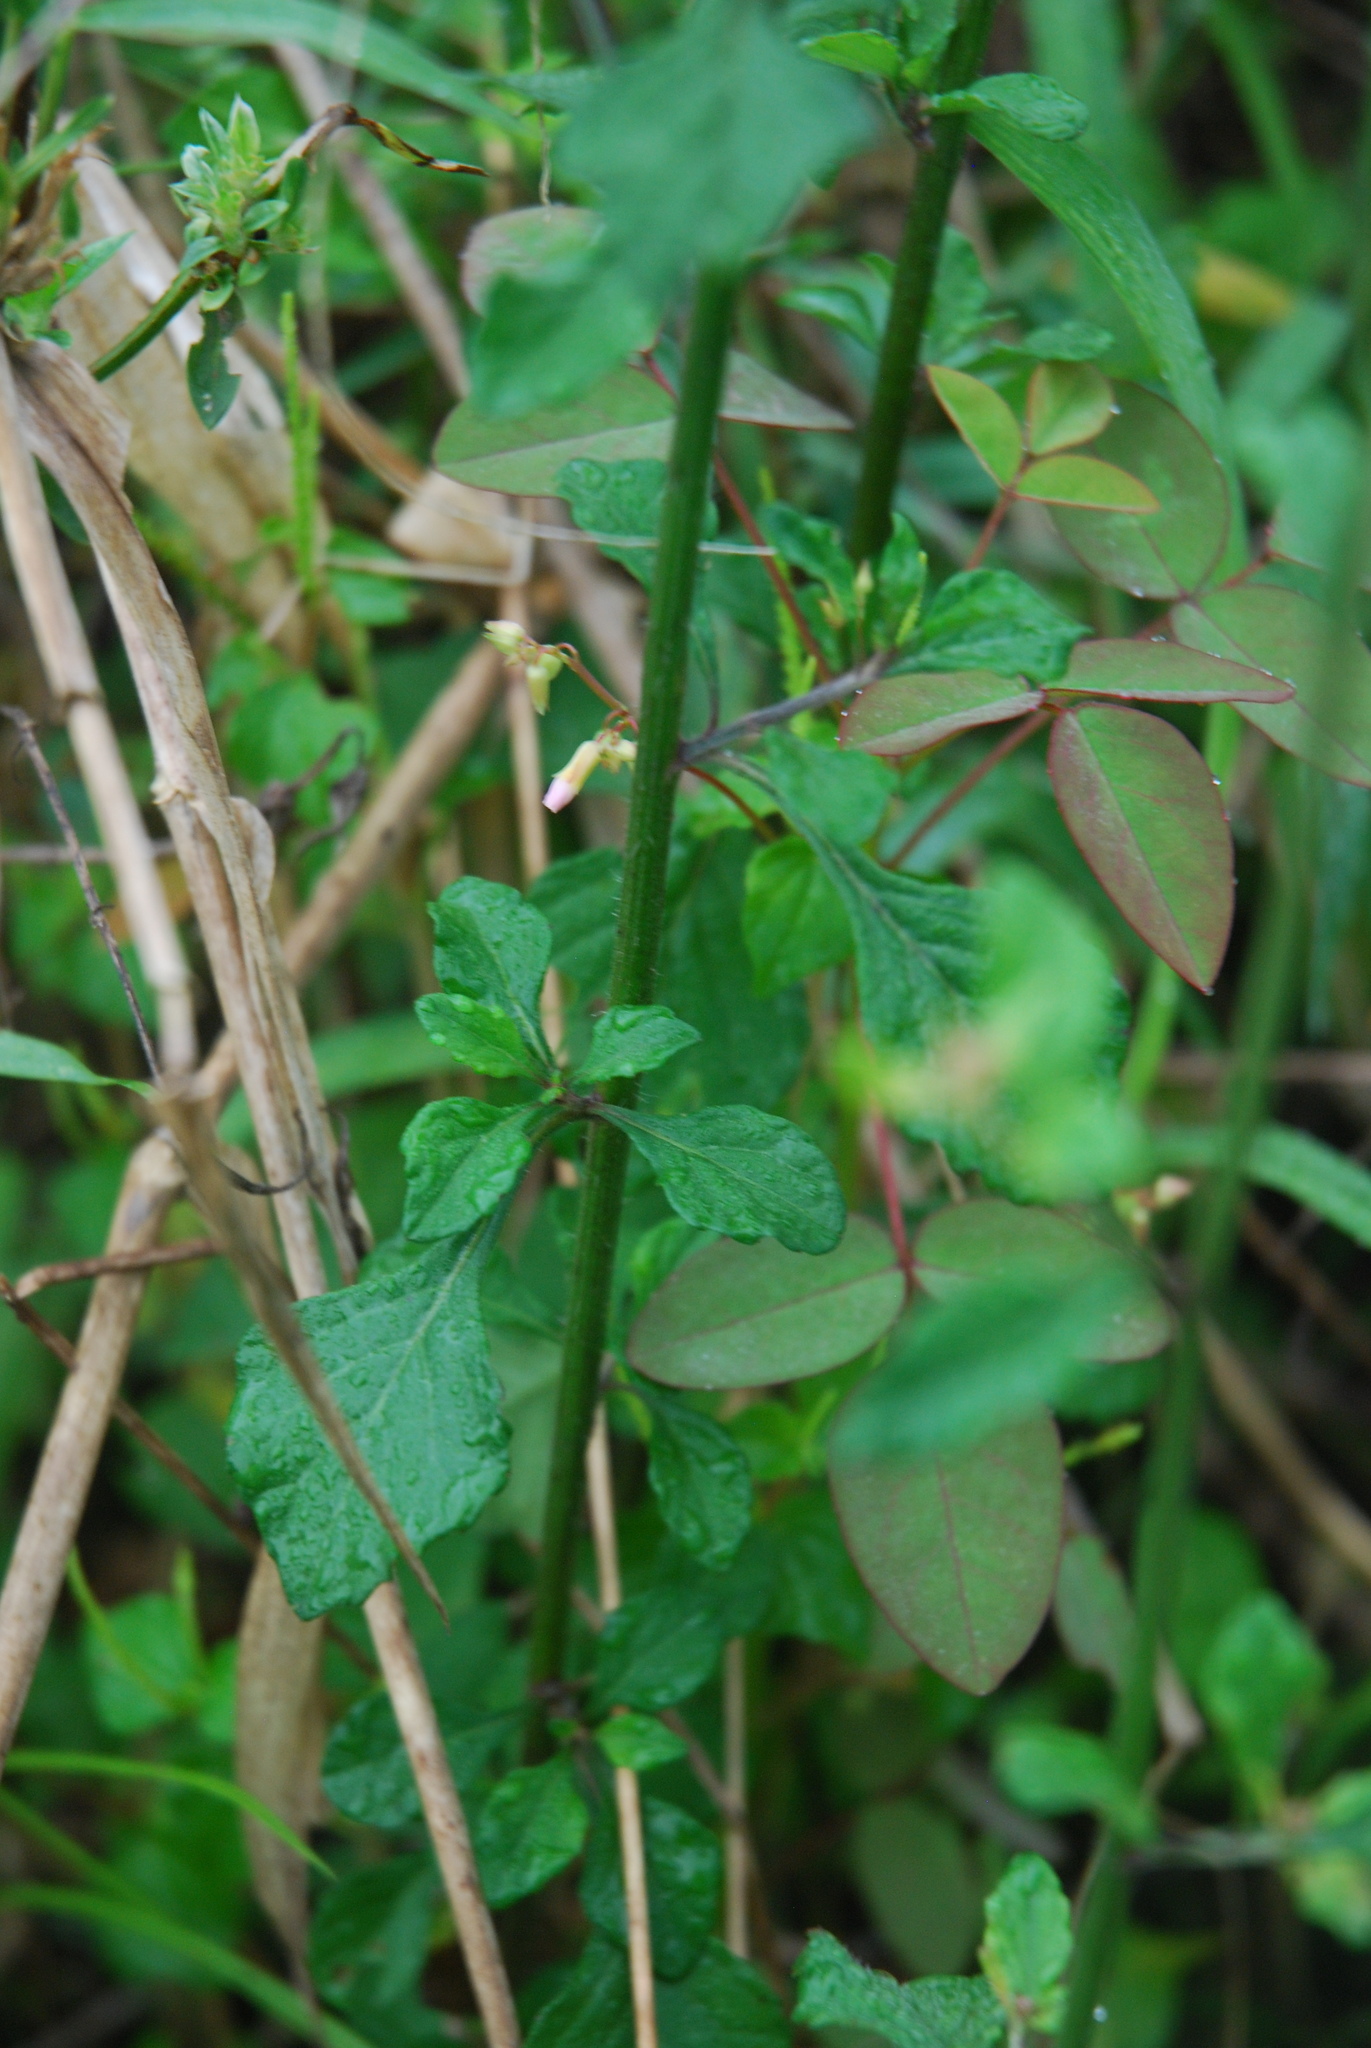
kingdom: Plantae
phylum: Tracheophyta
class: Magnoliopsida
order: Asterales
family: Asteraceae
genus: Cyanthillium
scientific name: Cyanthillium cinereum
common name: Little ironweed
